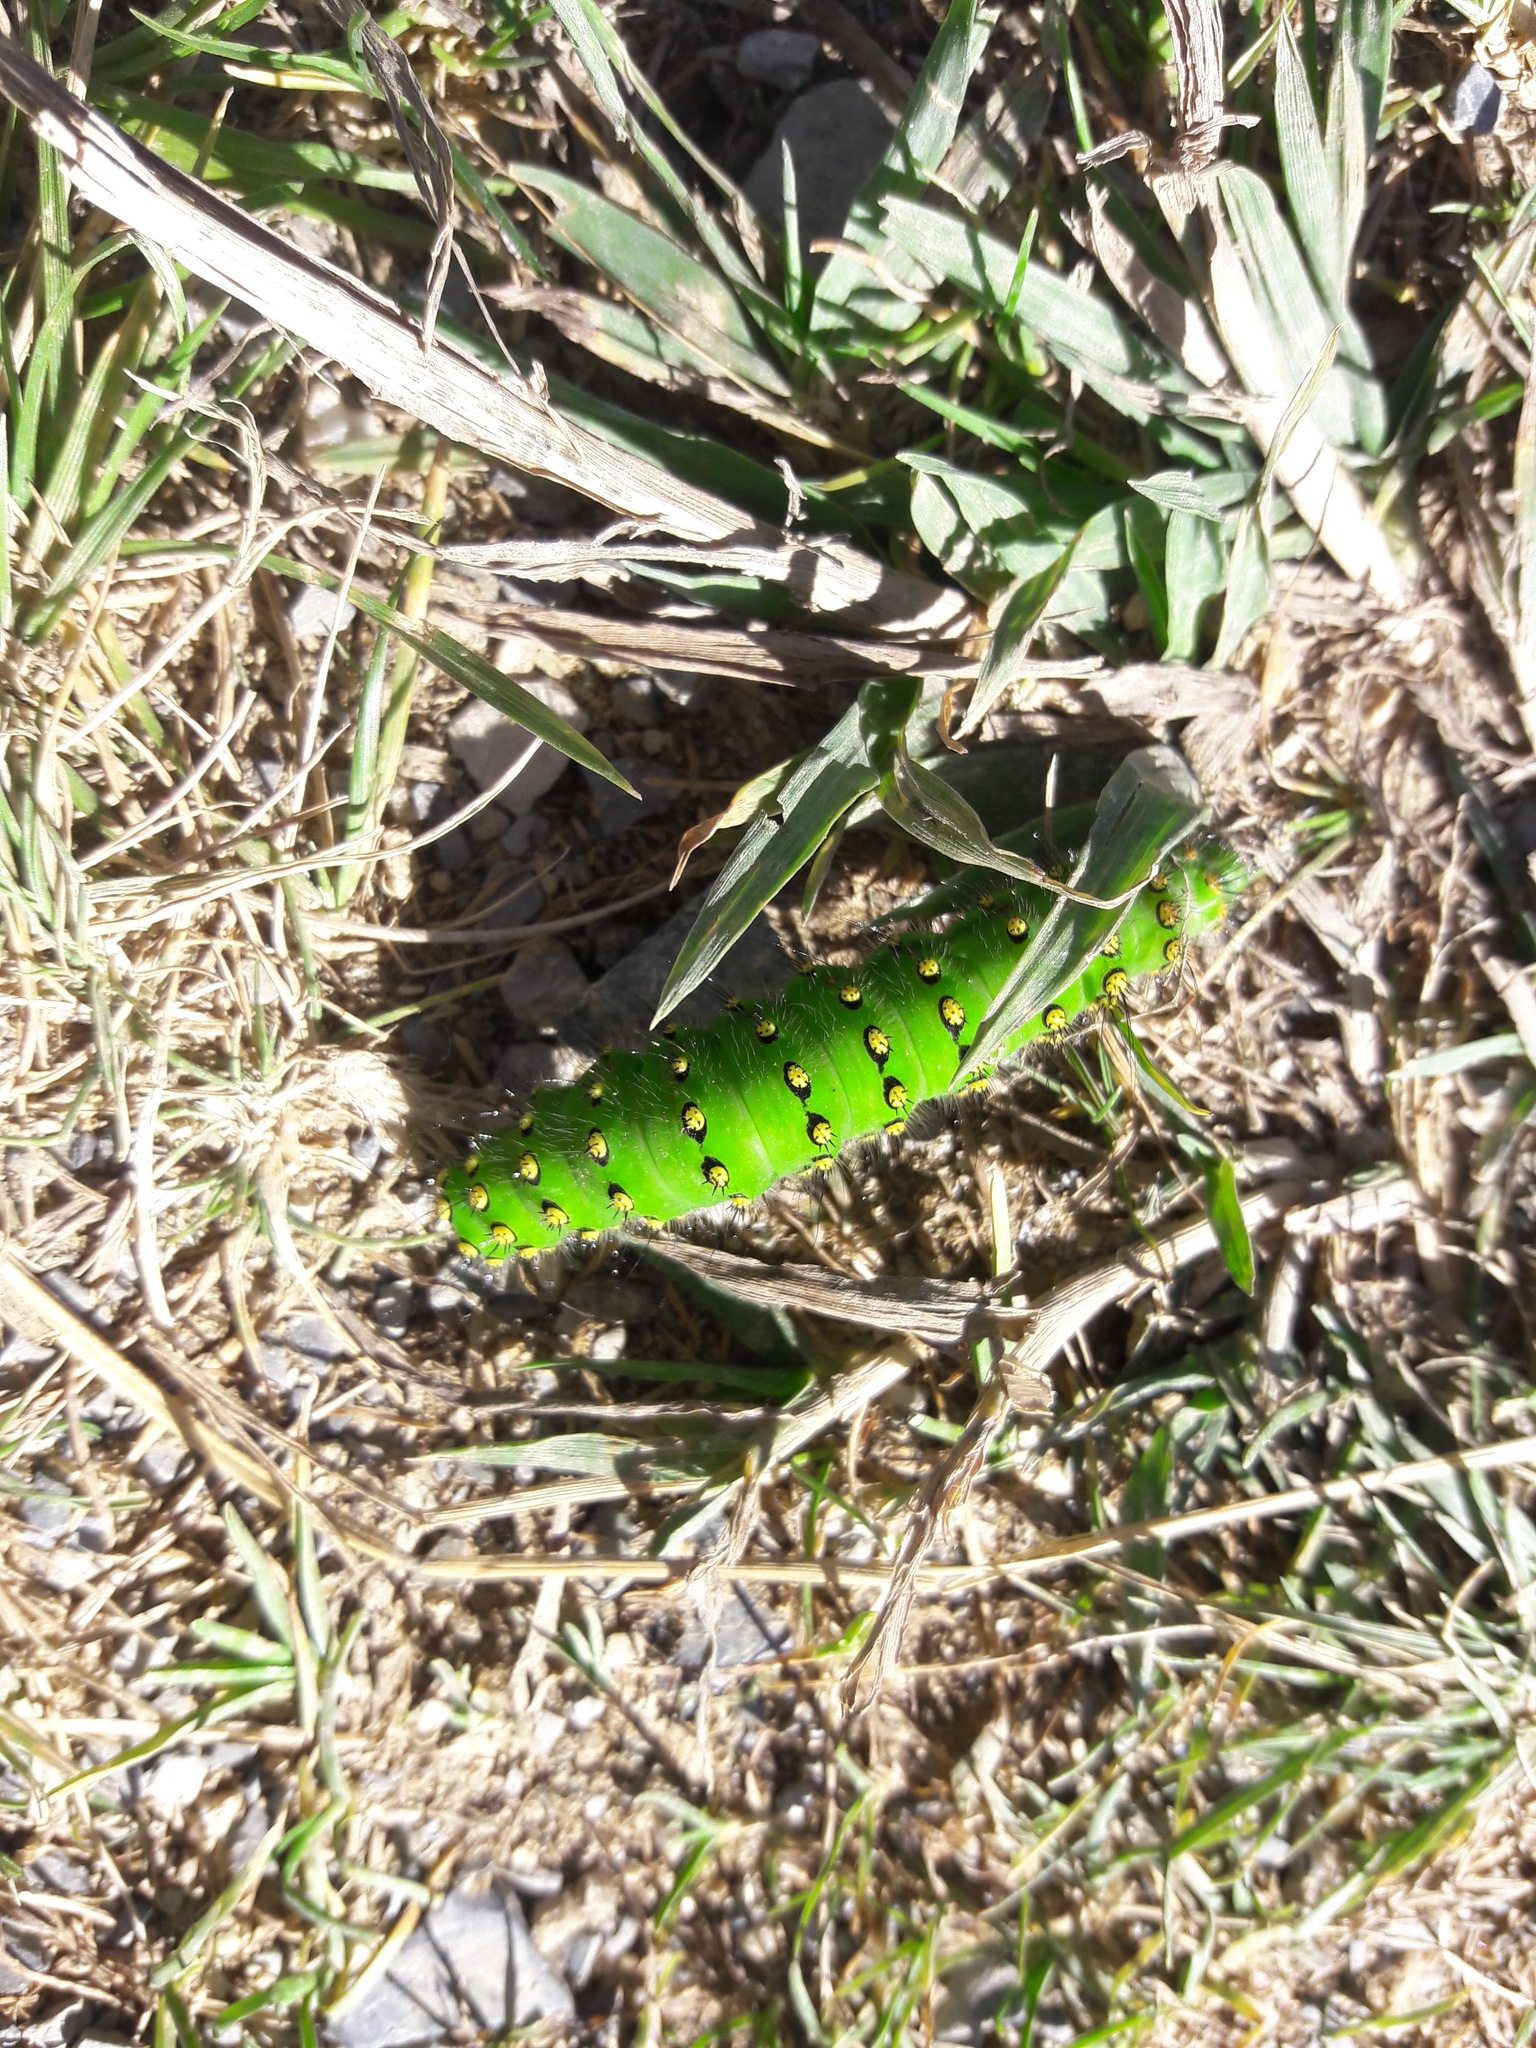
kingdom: Animalia
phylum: Arthropoda
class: Insecta
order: Lepidoptera
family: Saturniidae
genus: Saturnia
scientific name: Saturnia pavonia
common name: Emperor moth
